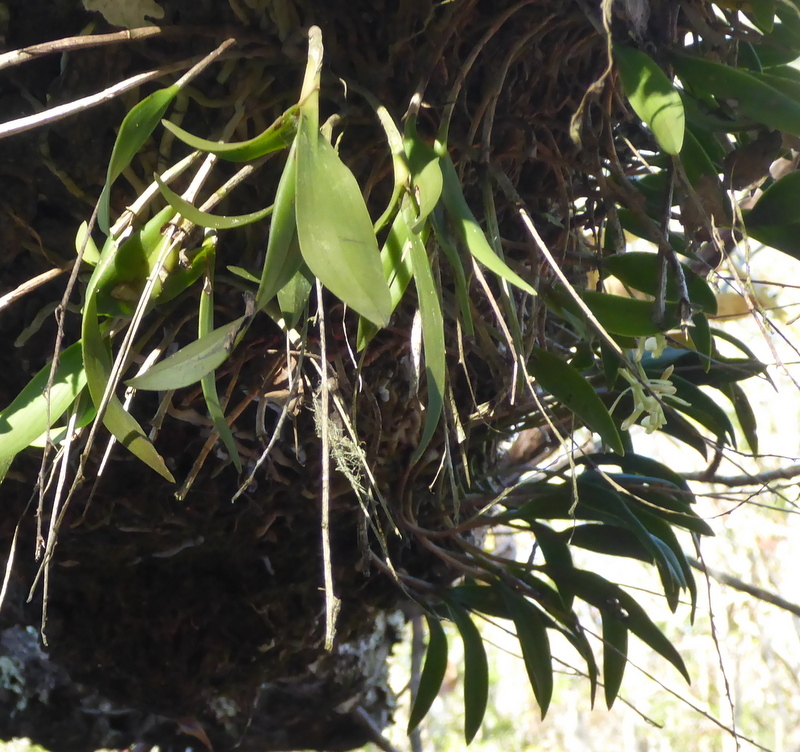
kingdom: Plantae
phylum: Tracheophyta
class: Liliopsida
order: Asparagales
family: Orchidaceae
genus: Epidendrum
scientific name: Epidendrum conopseum
